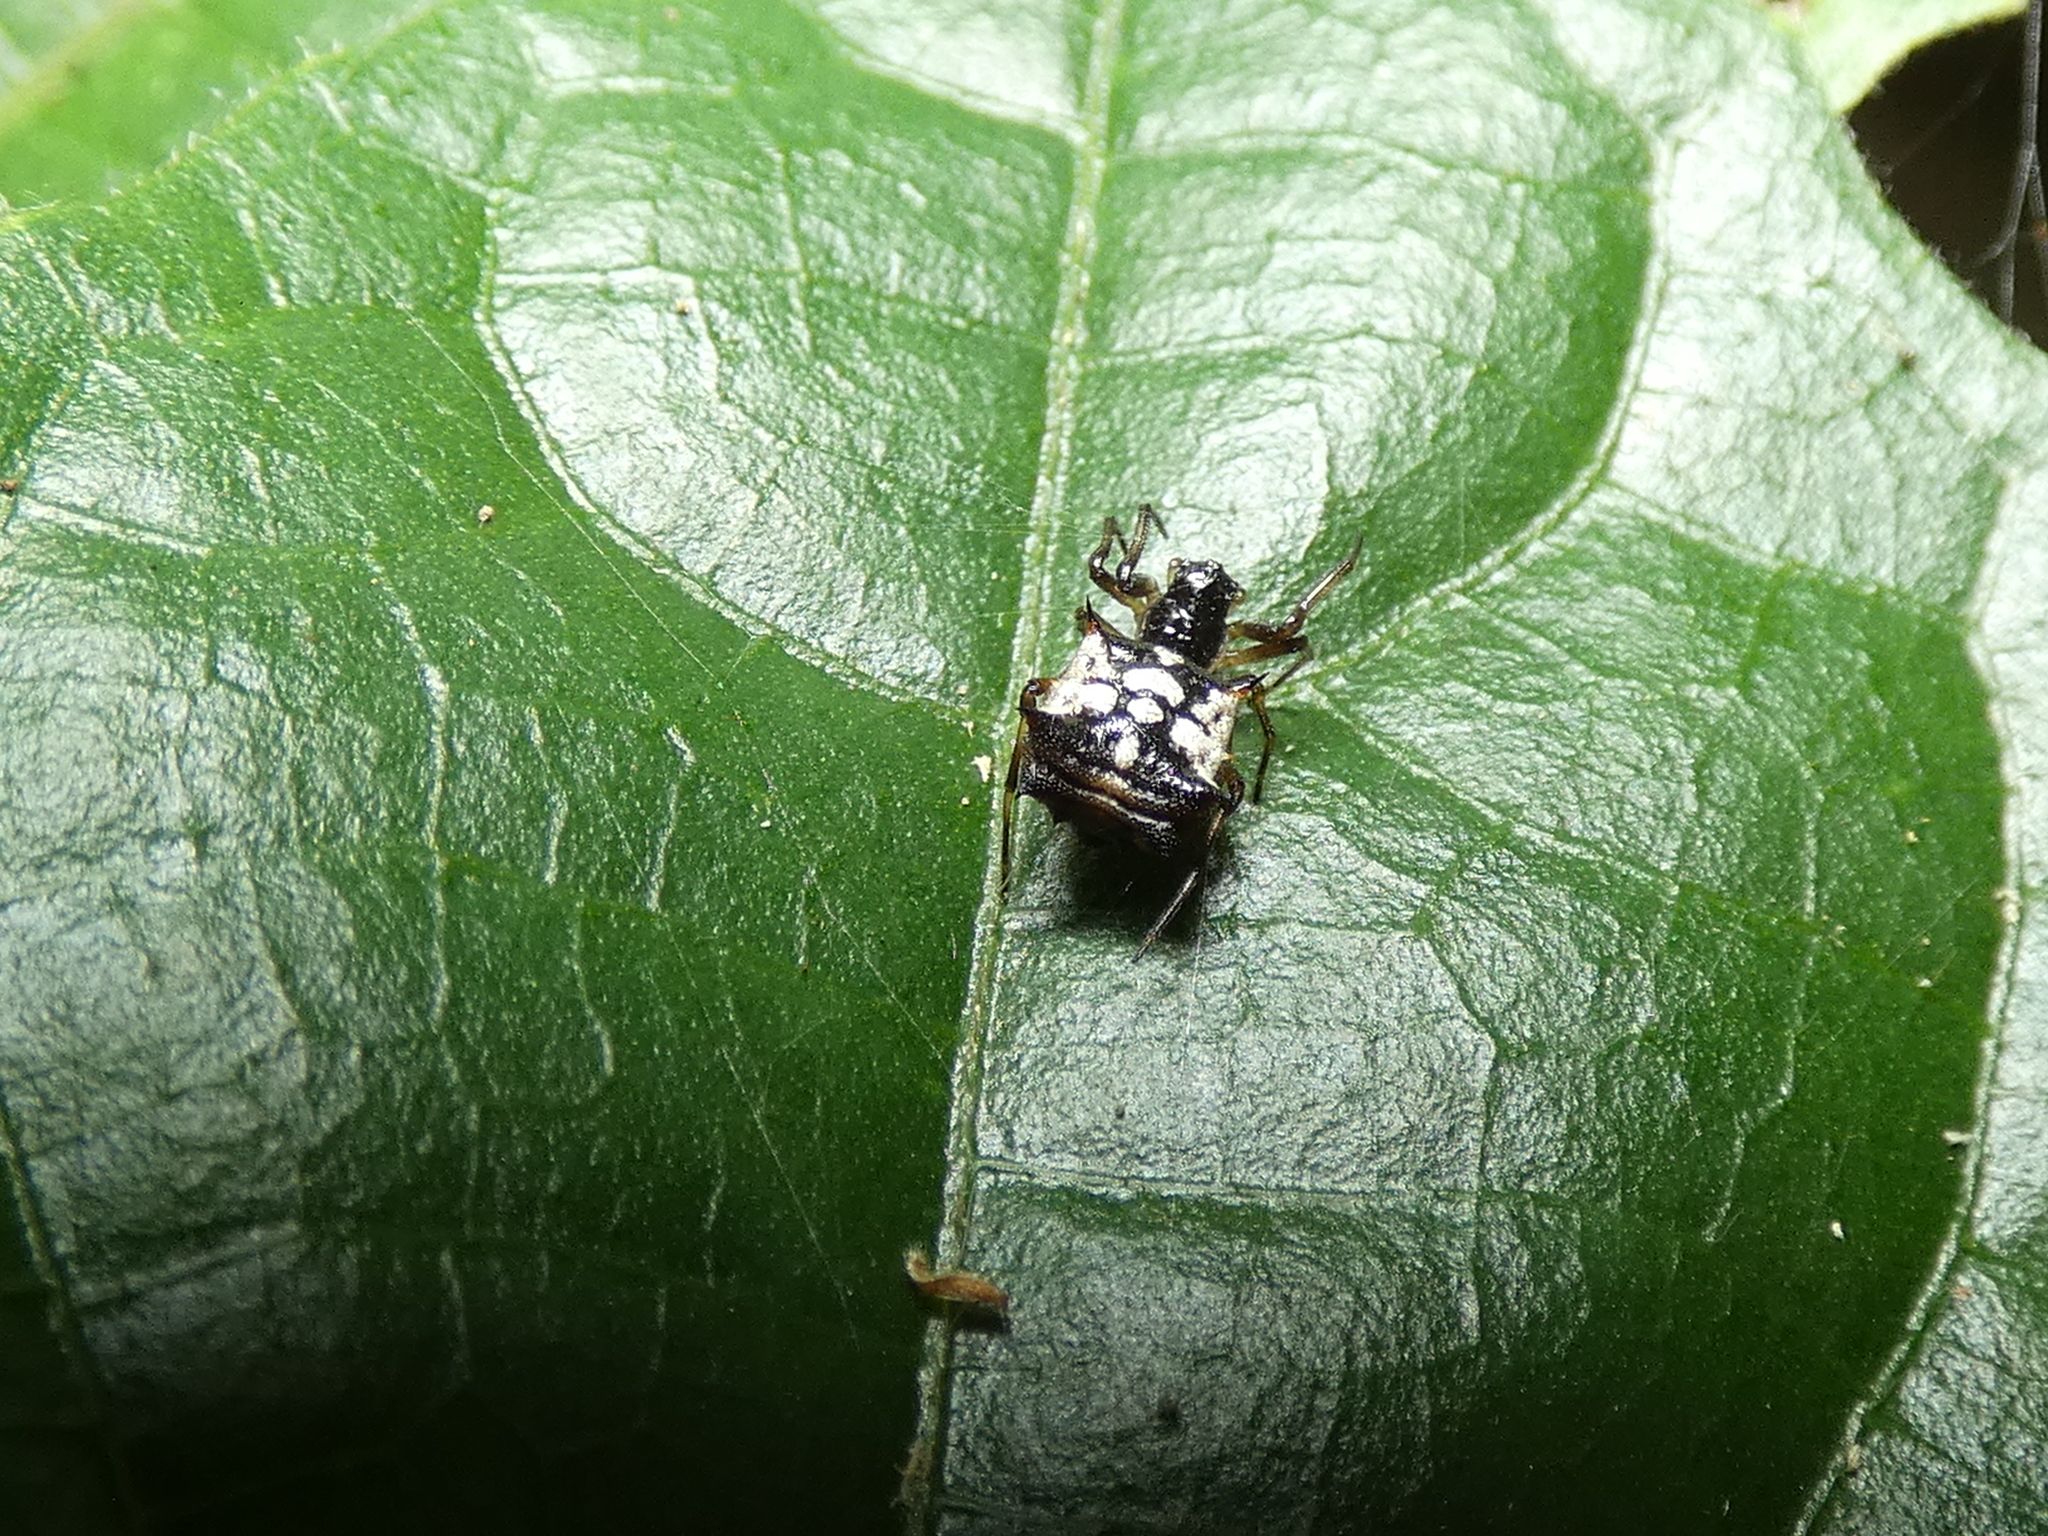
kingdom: Animalia
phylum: Arthropoda
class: Arachnida
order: Araneae
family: Araneidae
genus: Micrathena
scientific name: Micrathena picta
